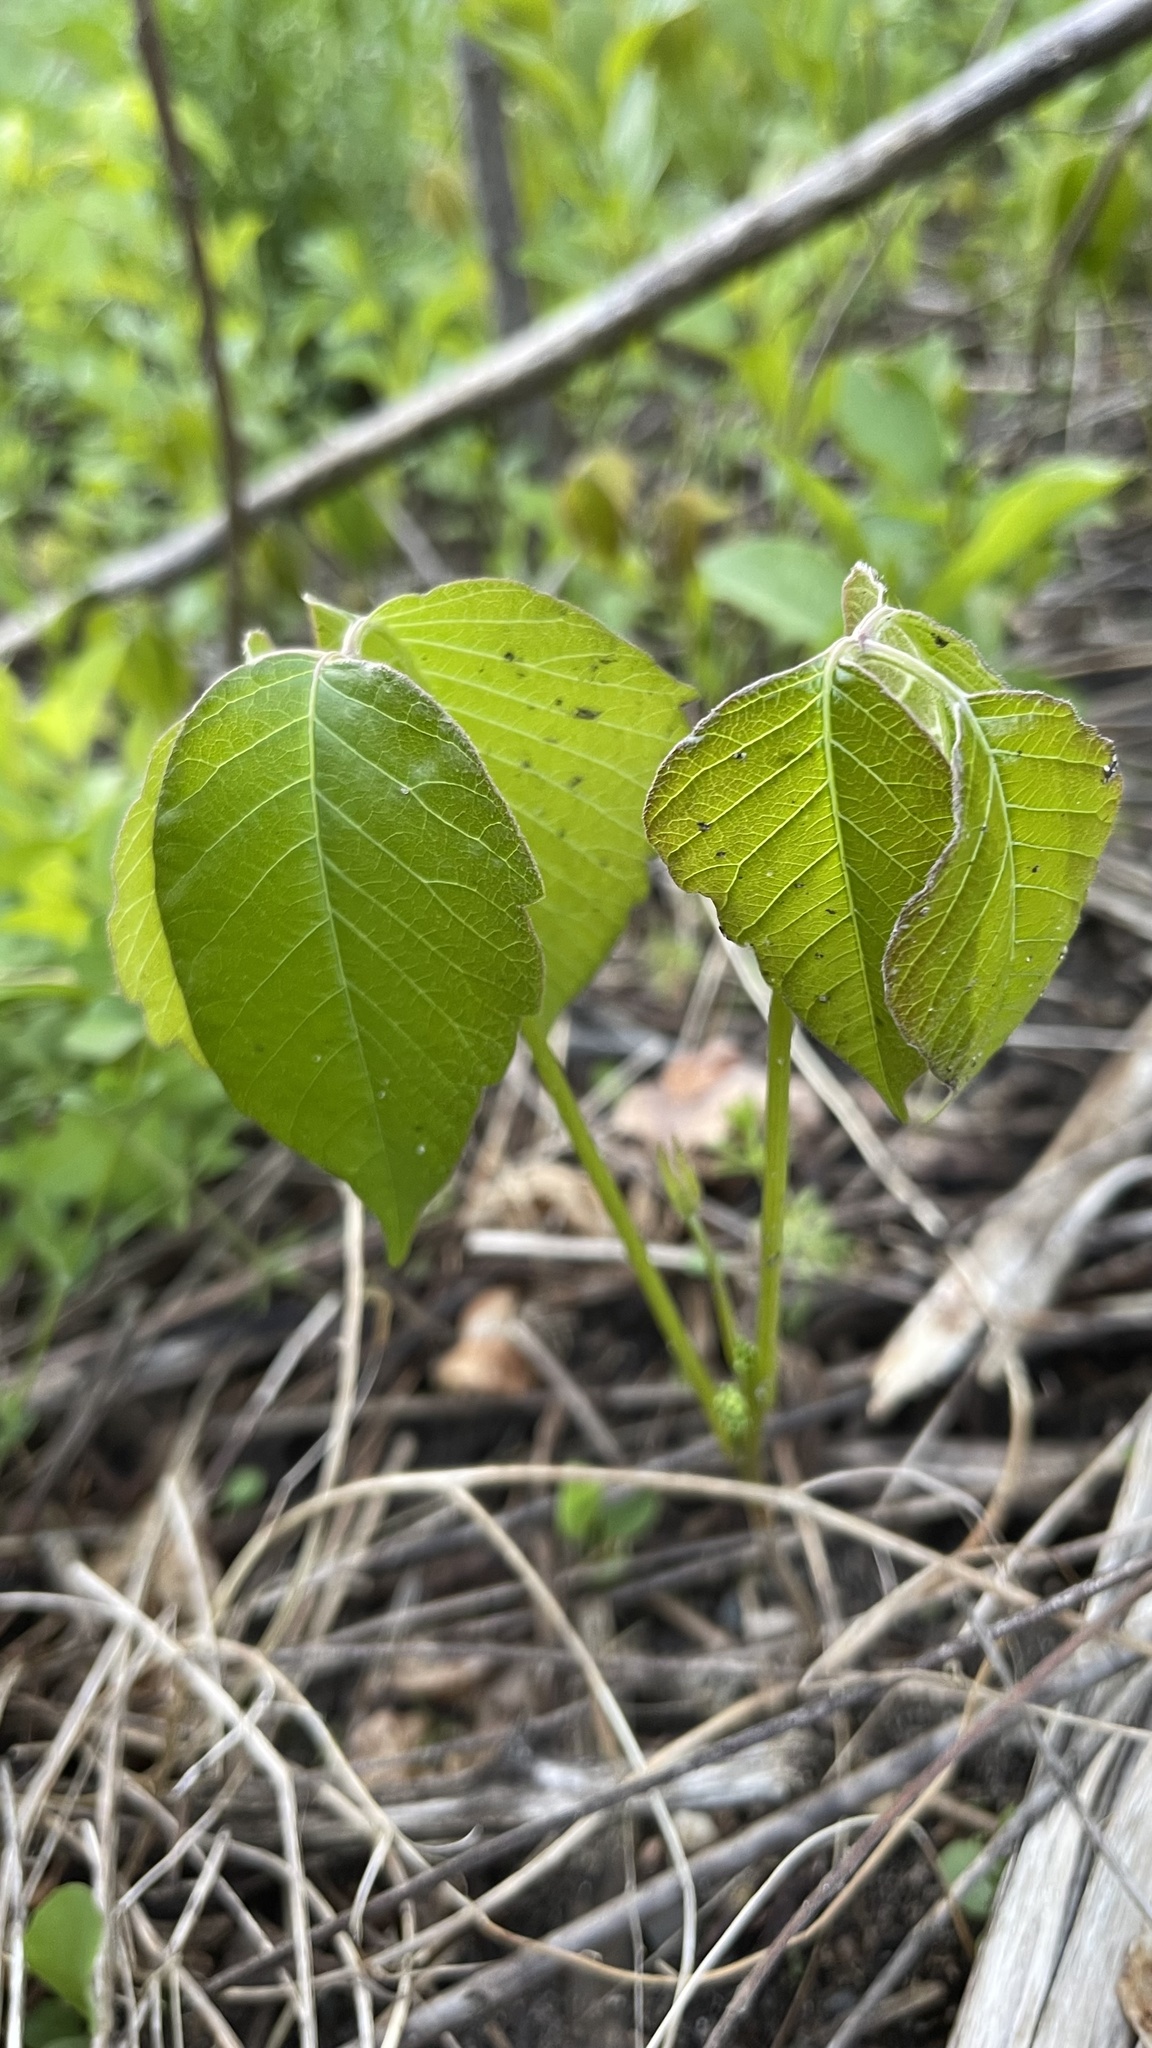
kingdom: Plantae
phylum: Tracheophyta
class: Magnoliopsida
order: Sapindales
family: Anacardiaceae
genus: Toxicodendron
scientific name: Toxicodendron rydbergii
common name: Rydberg's poison-ivy
